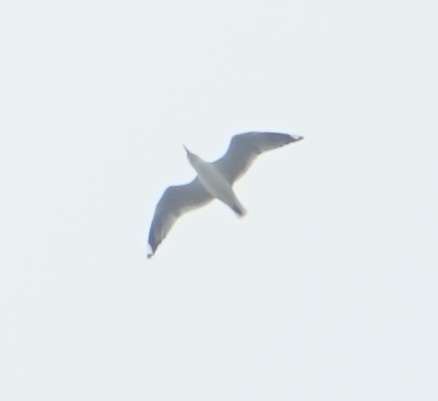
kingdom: Animalia
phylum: Chordata
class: Aves
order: Charadriiformes
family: Laridae
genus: Chroicocephalus
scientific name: Chroicocephalus novaehollandiae
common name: Silver gull
